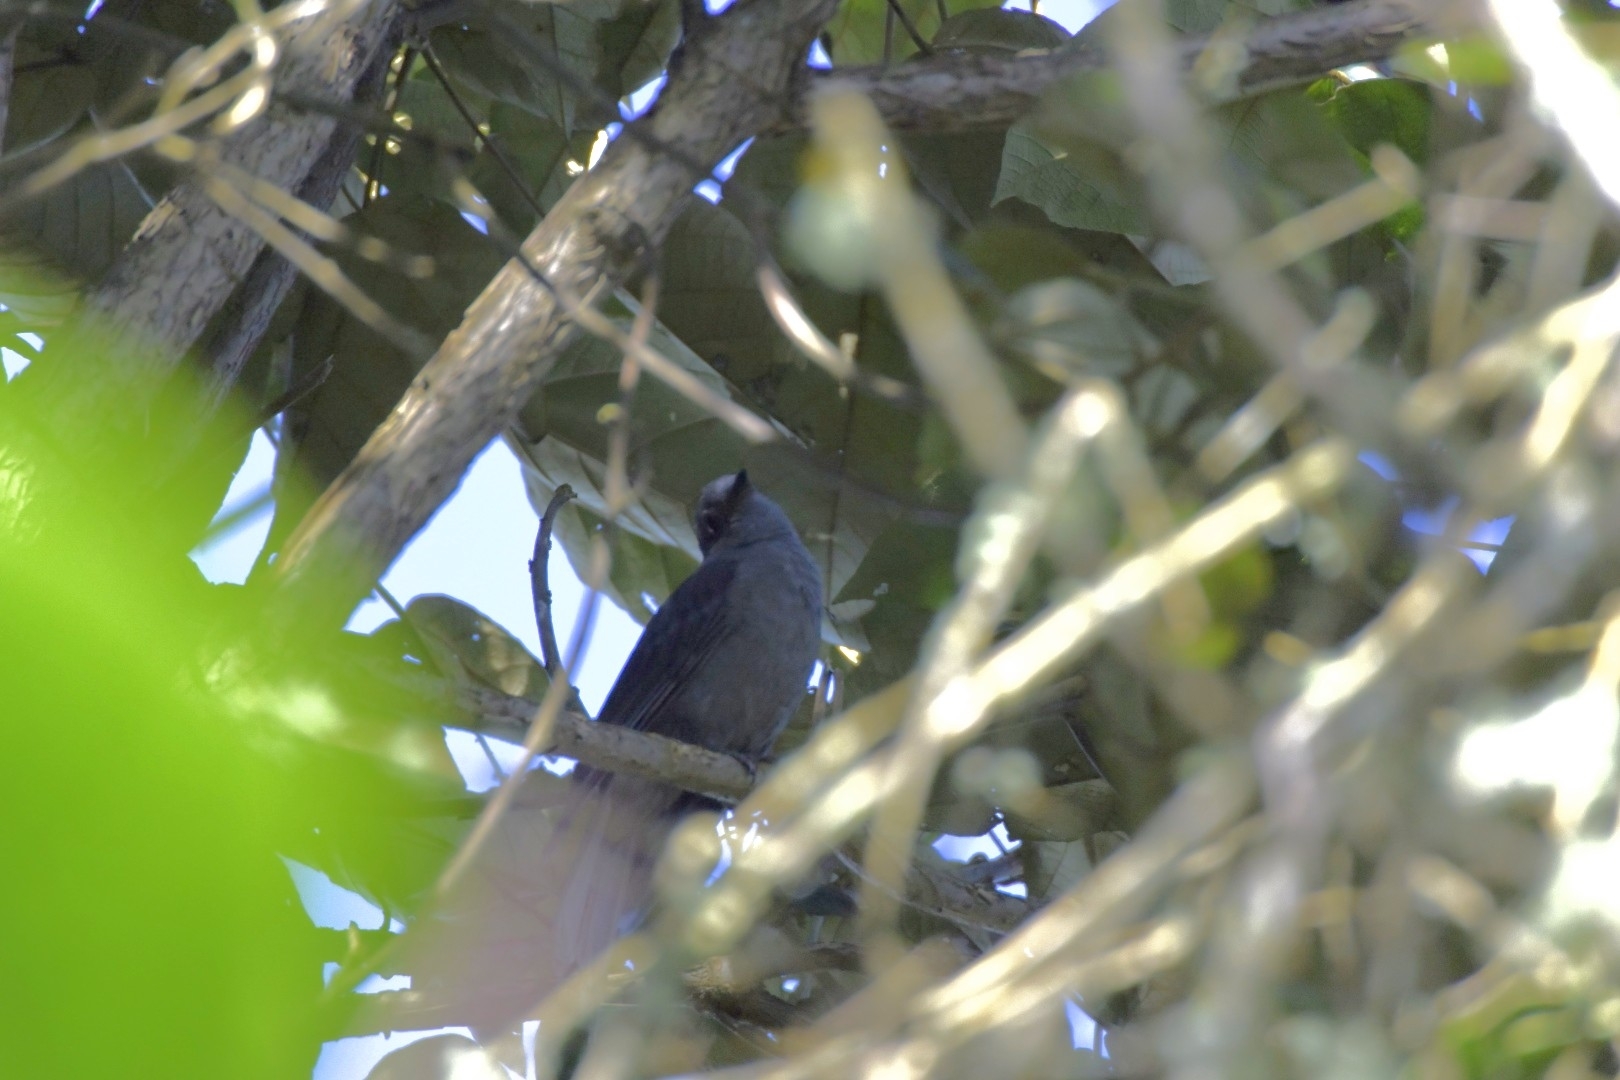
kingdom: Animalia
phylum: Chordata
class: Aves
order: Passeriformes
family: Cotingidae
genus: Lipaugus
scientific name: Lipaugus fuscocinereus
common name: Dusky piha
